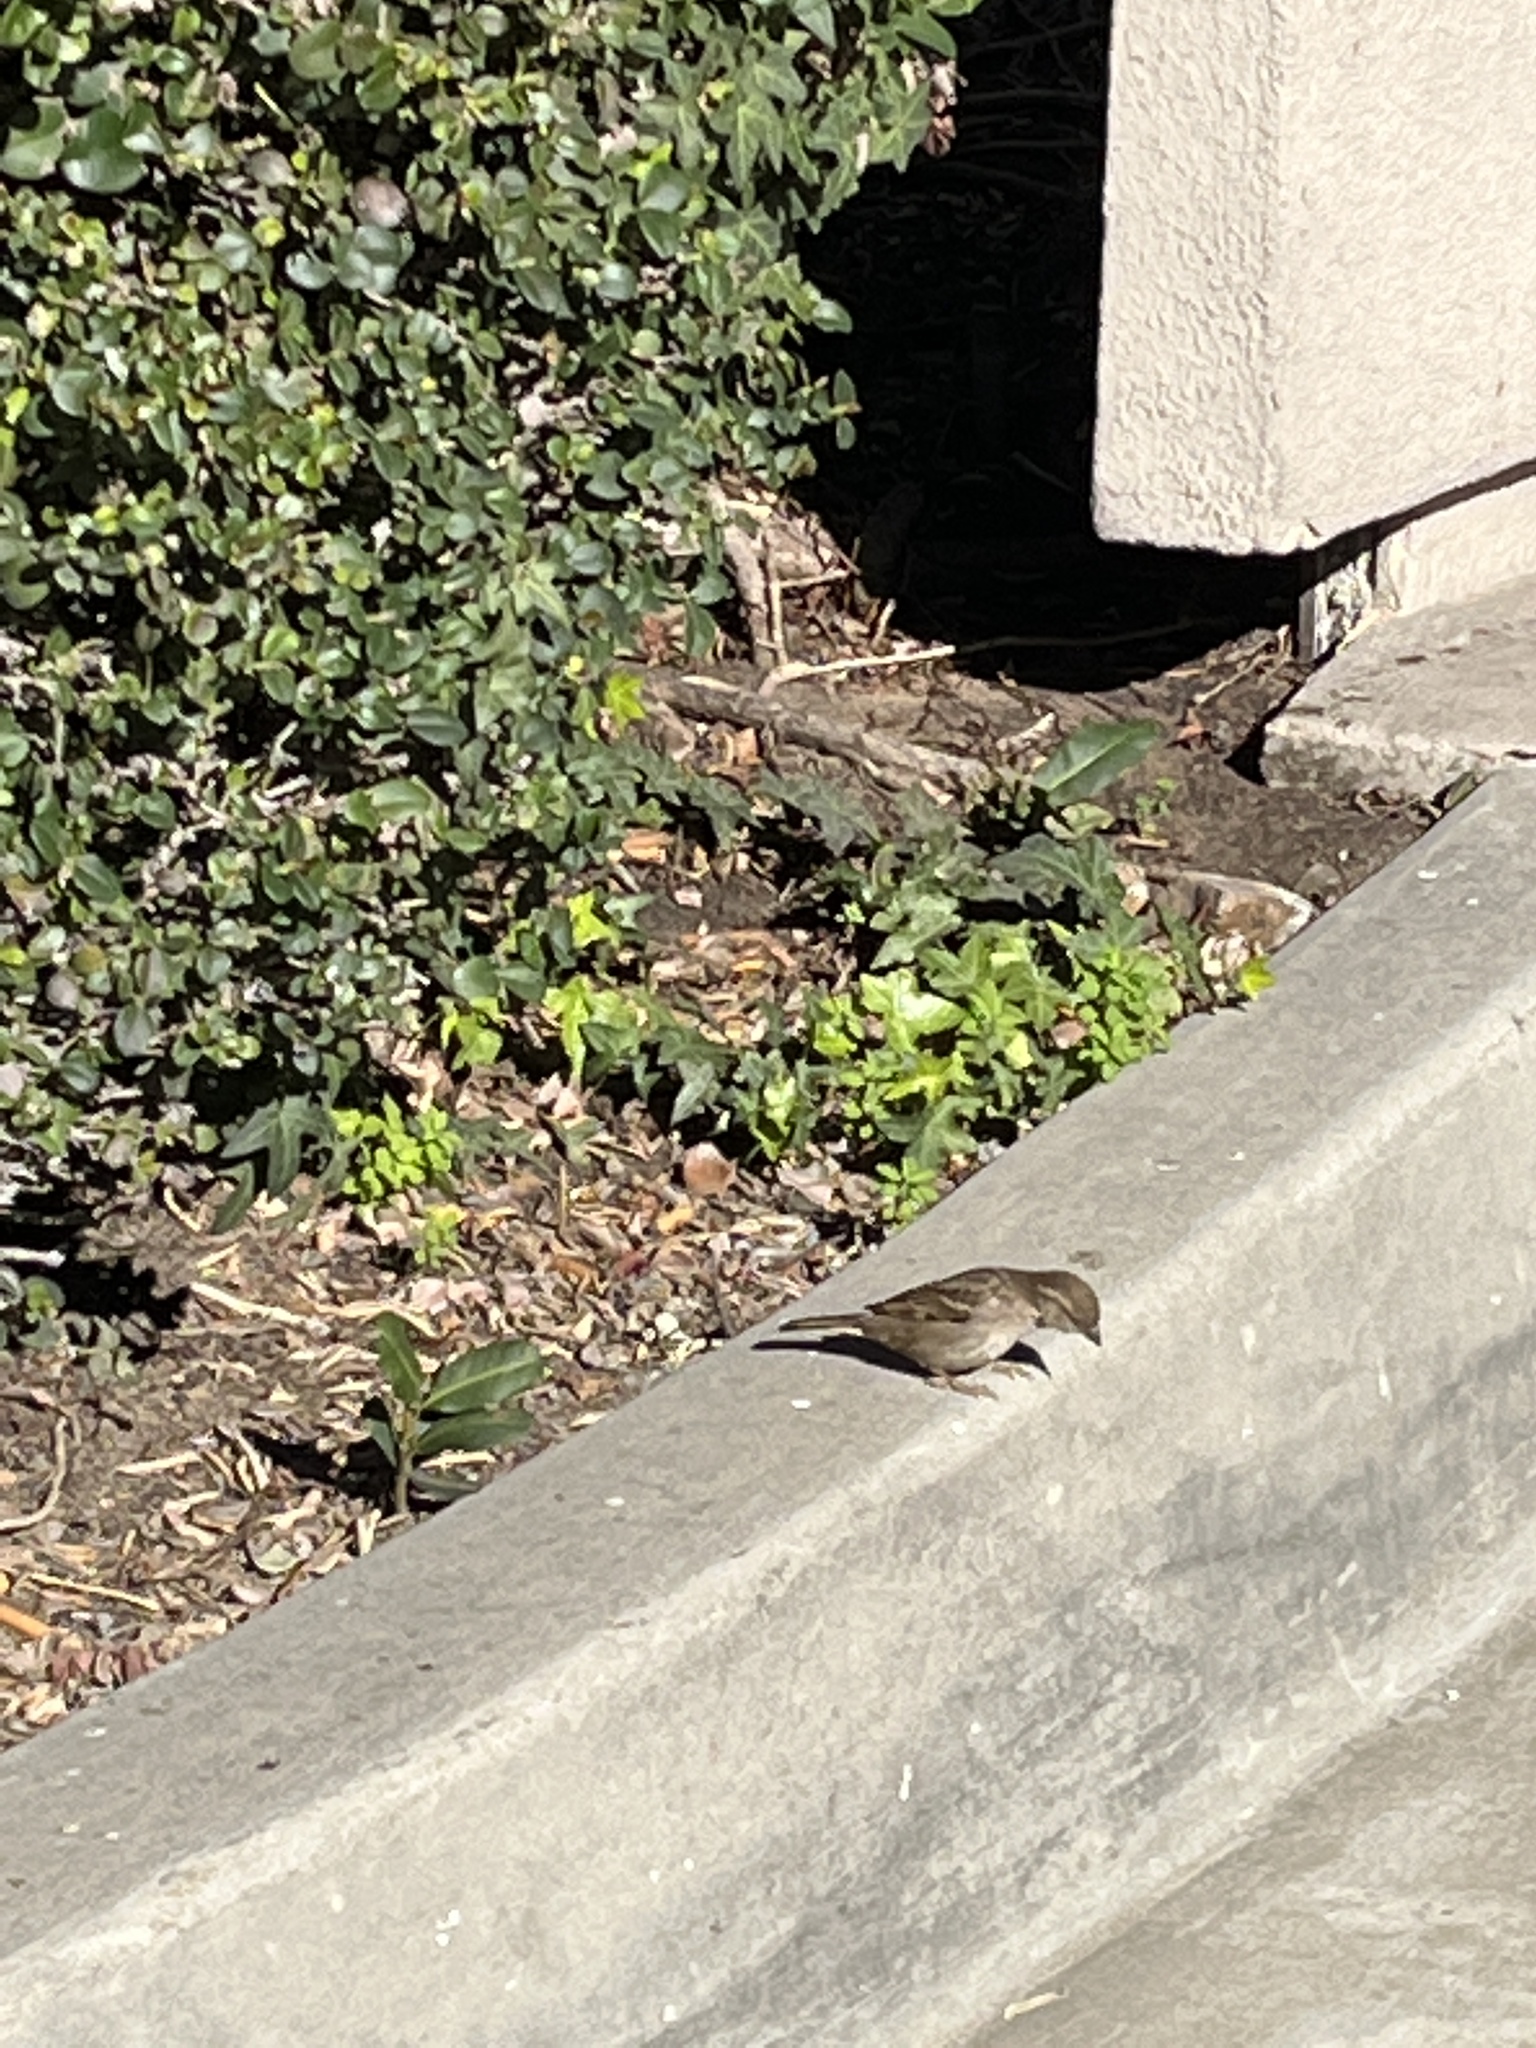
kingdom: Animalia
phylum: Chordata
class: Aves
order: Passeriformes
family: Passeridae
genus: Passer
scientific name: Passer domesticus
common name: House sparrow
